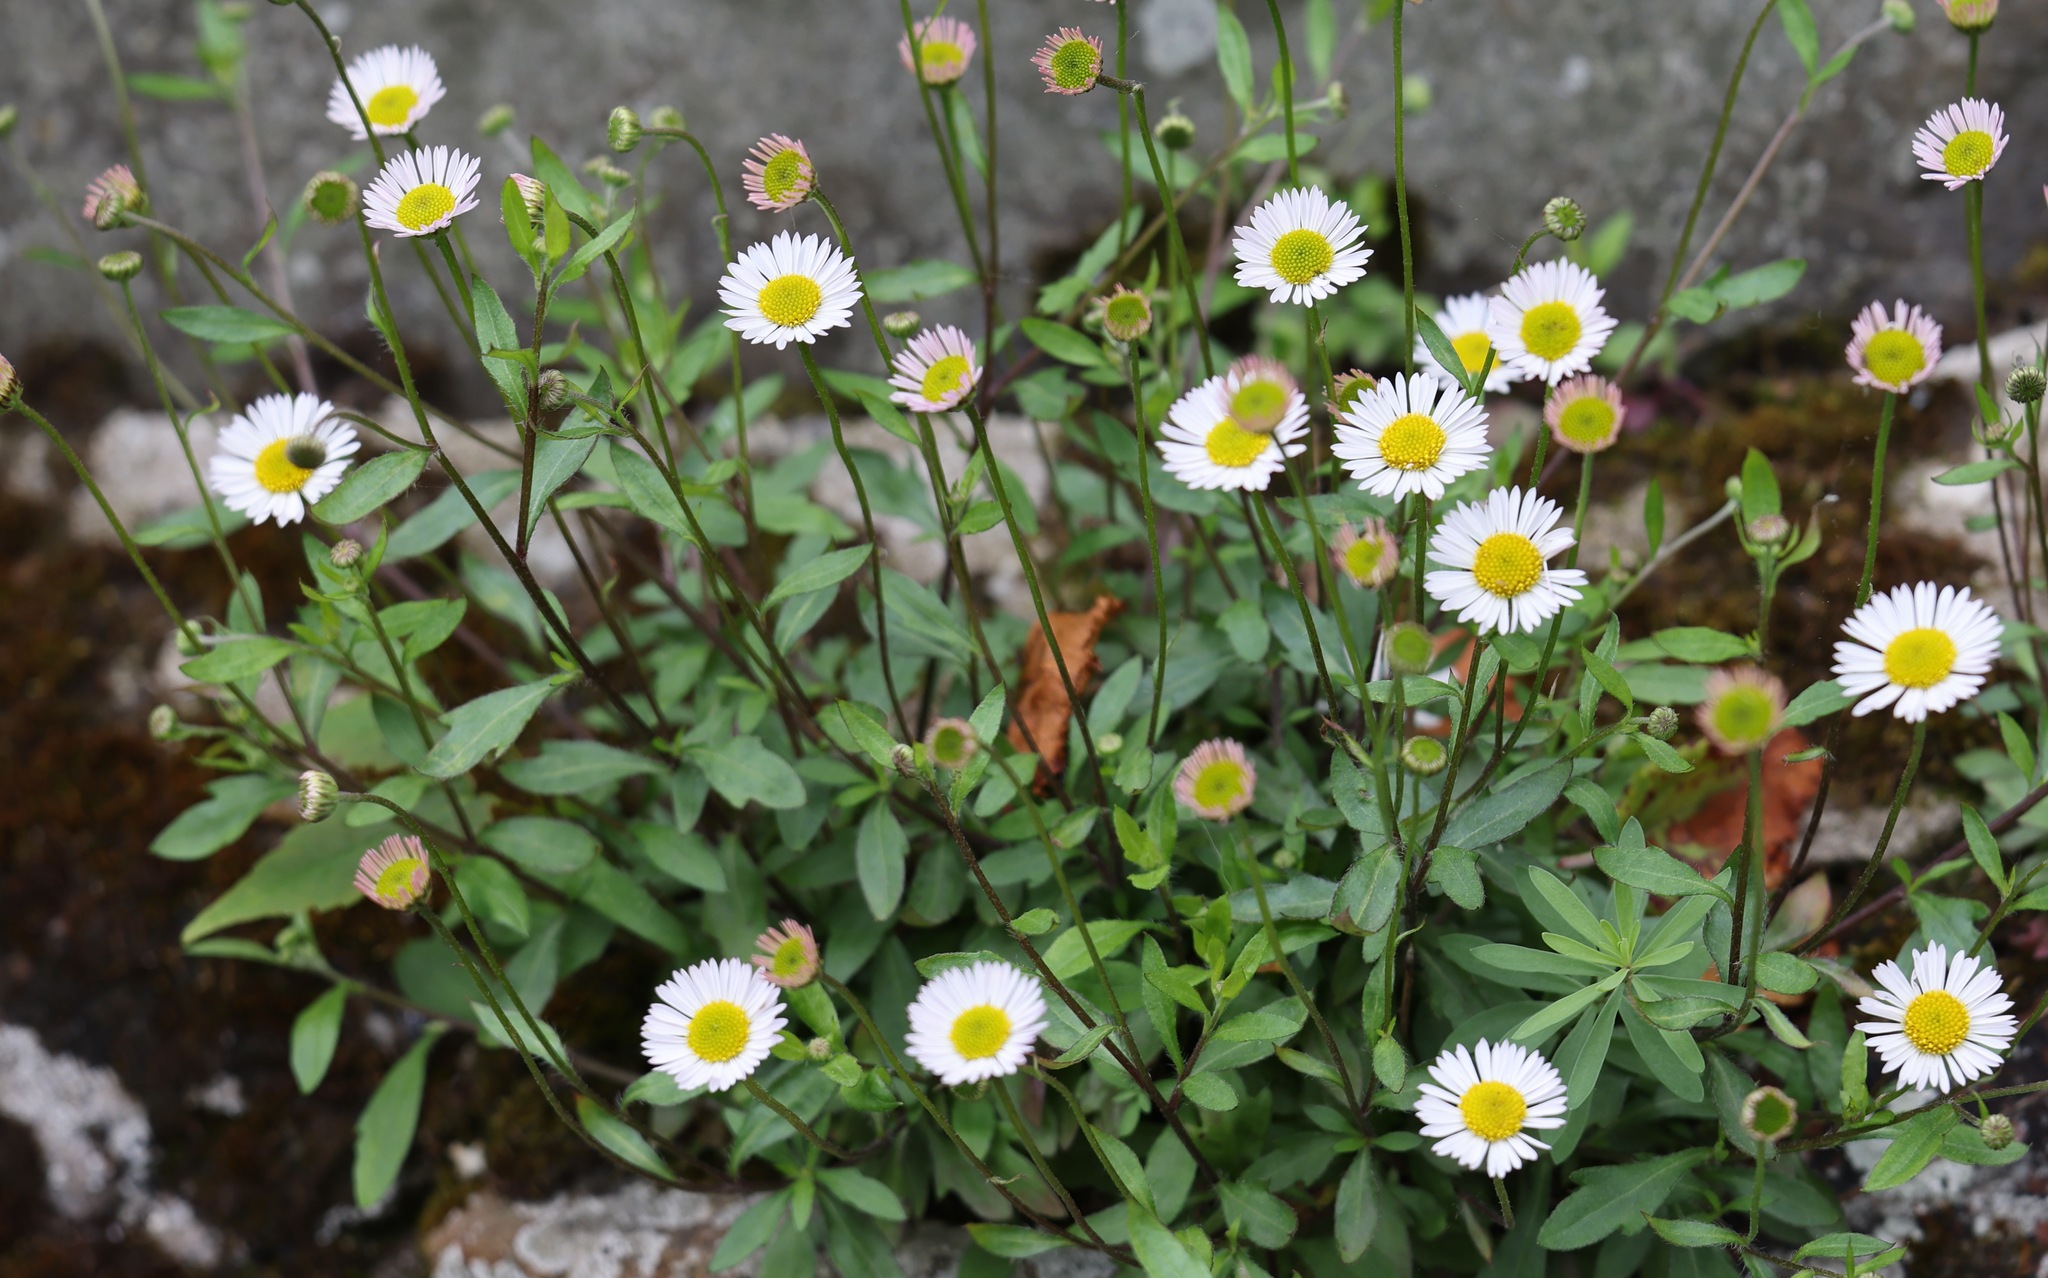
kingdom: Plantae
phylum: Tracheophyta
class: Magnoliopsida
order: Asterales
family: Asteraceae
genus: Erigeron
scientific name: Erigeron karvinskianus
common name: Mexican fleabane
